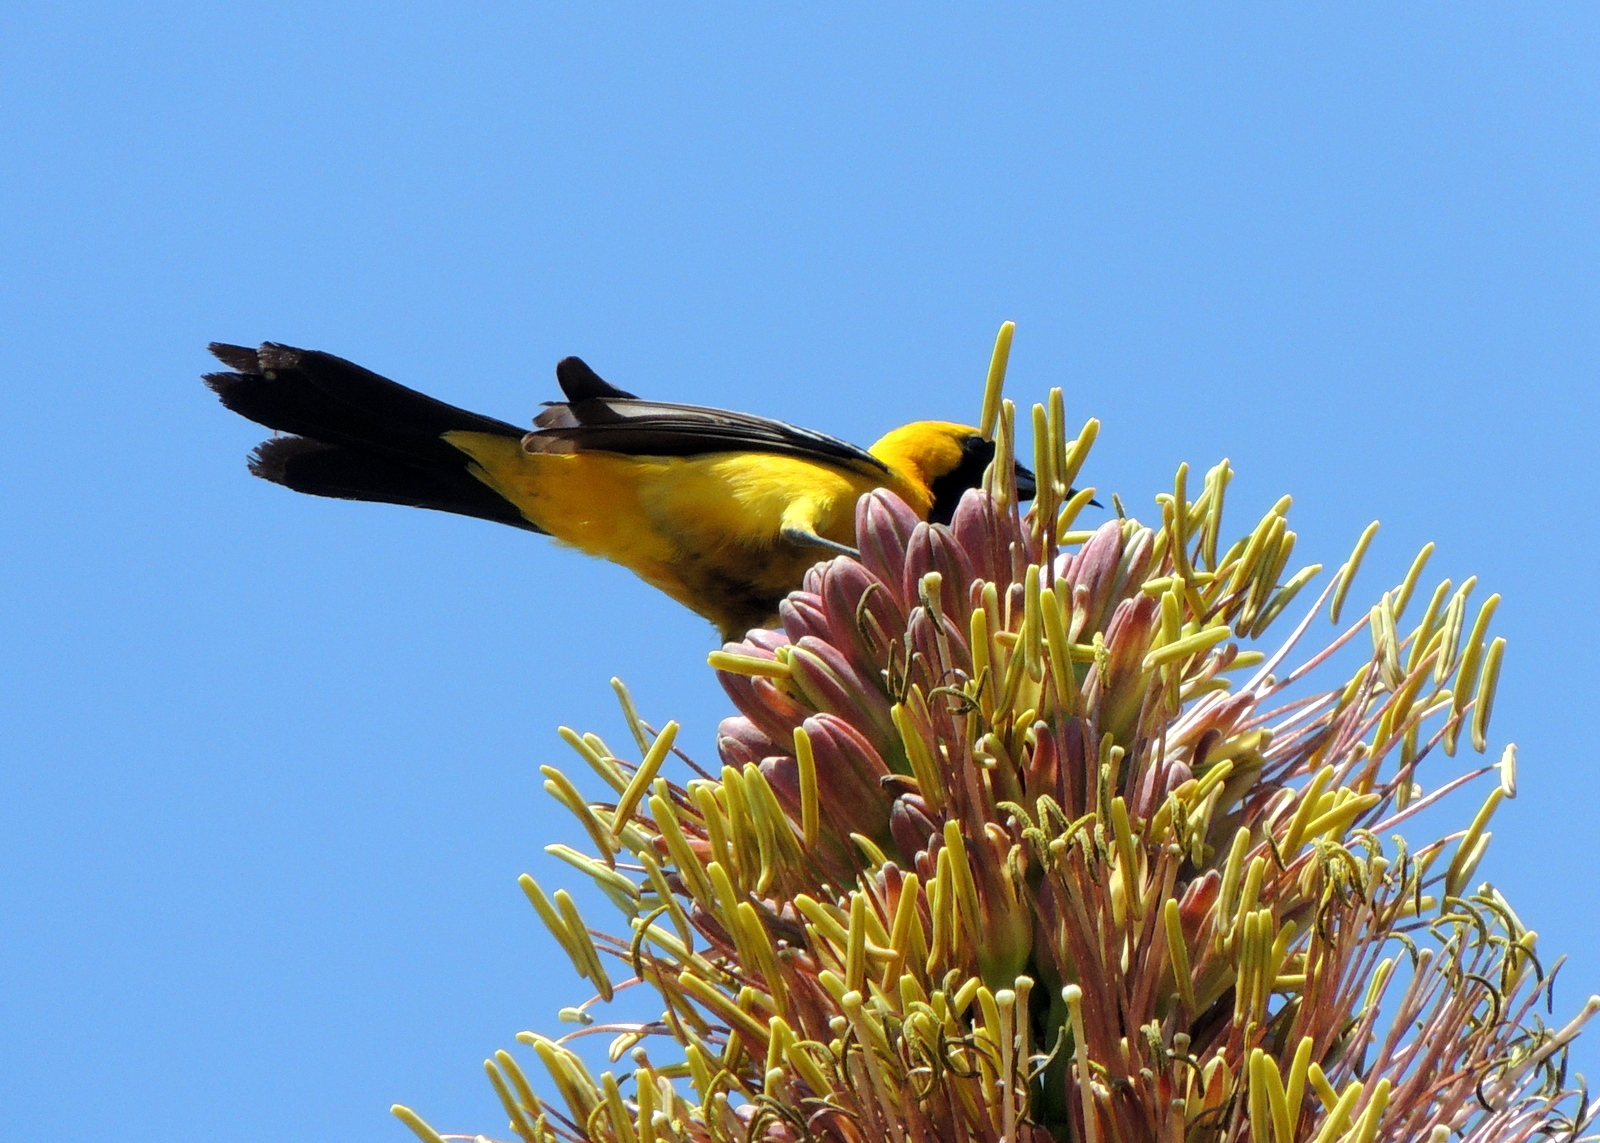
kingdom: Animalia
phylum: Chordata
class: Aves
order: Passeriformes
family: Icteridae
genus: Icterus
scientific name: Icterus cucullatus
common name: Hooded oriole
